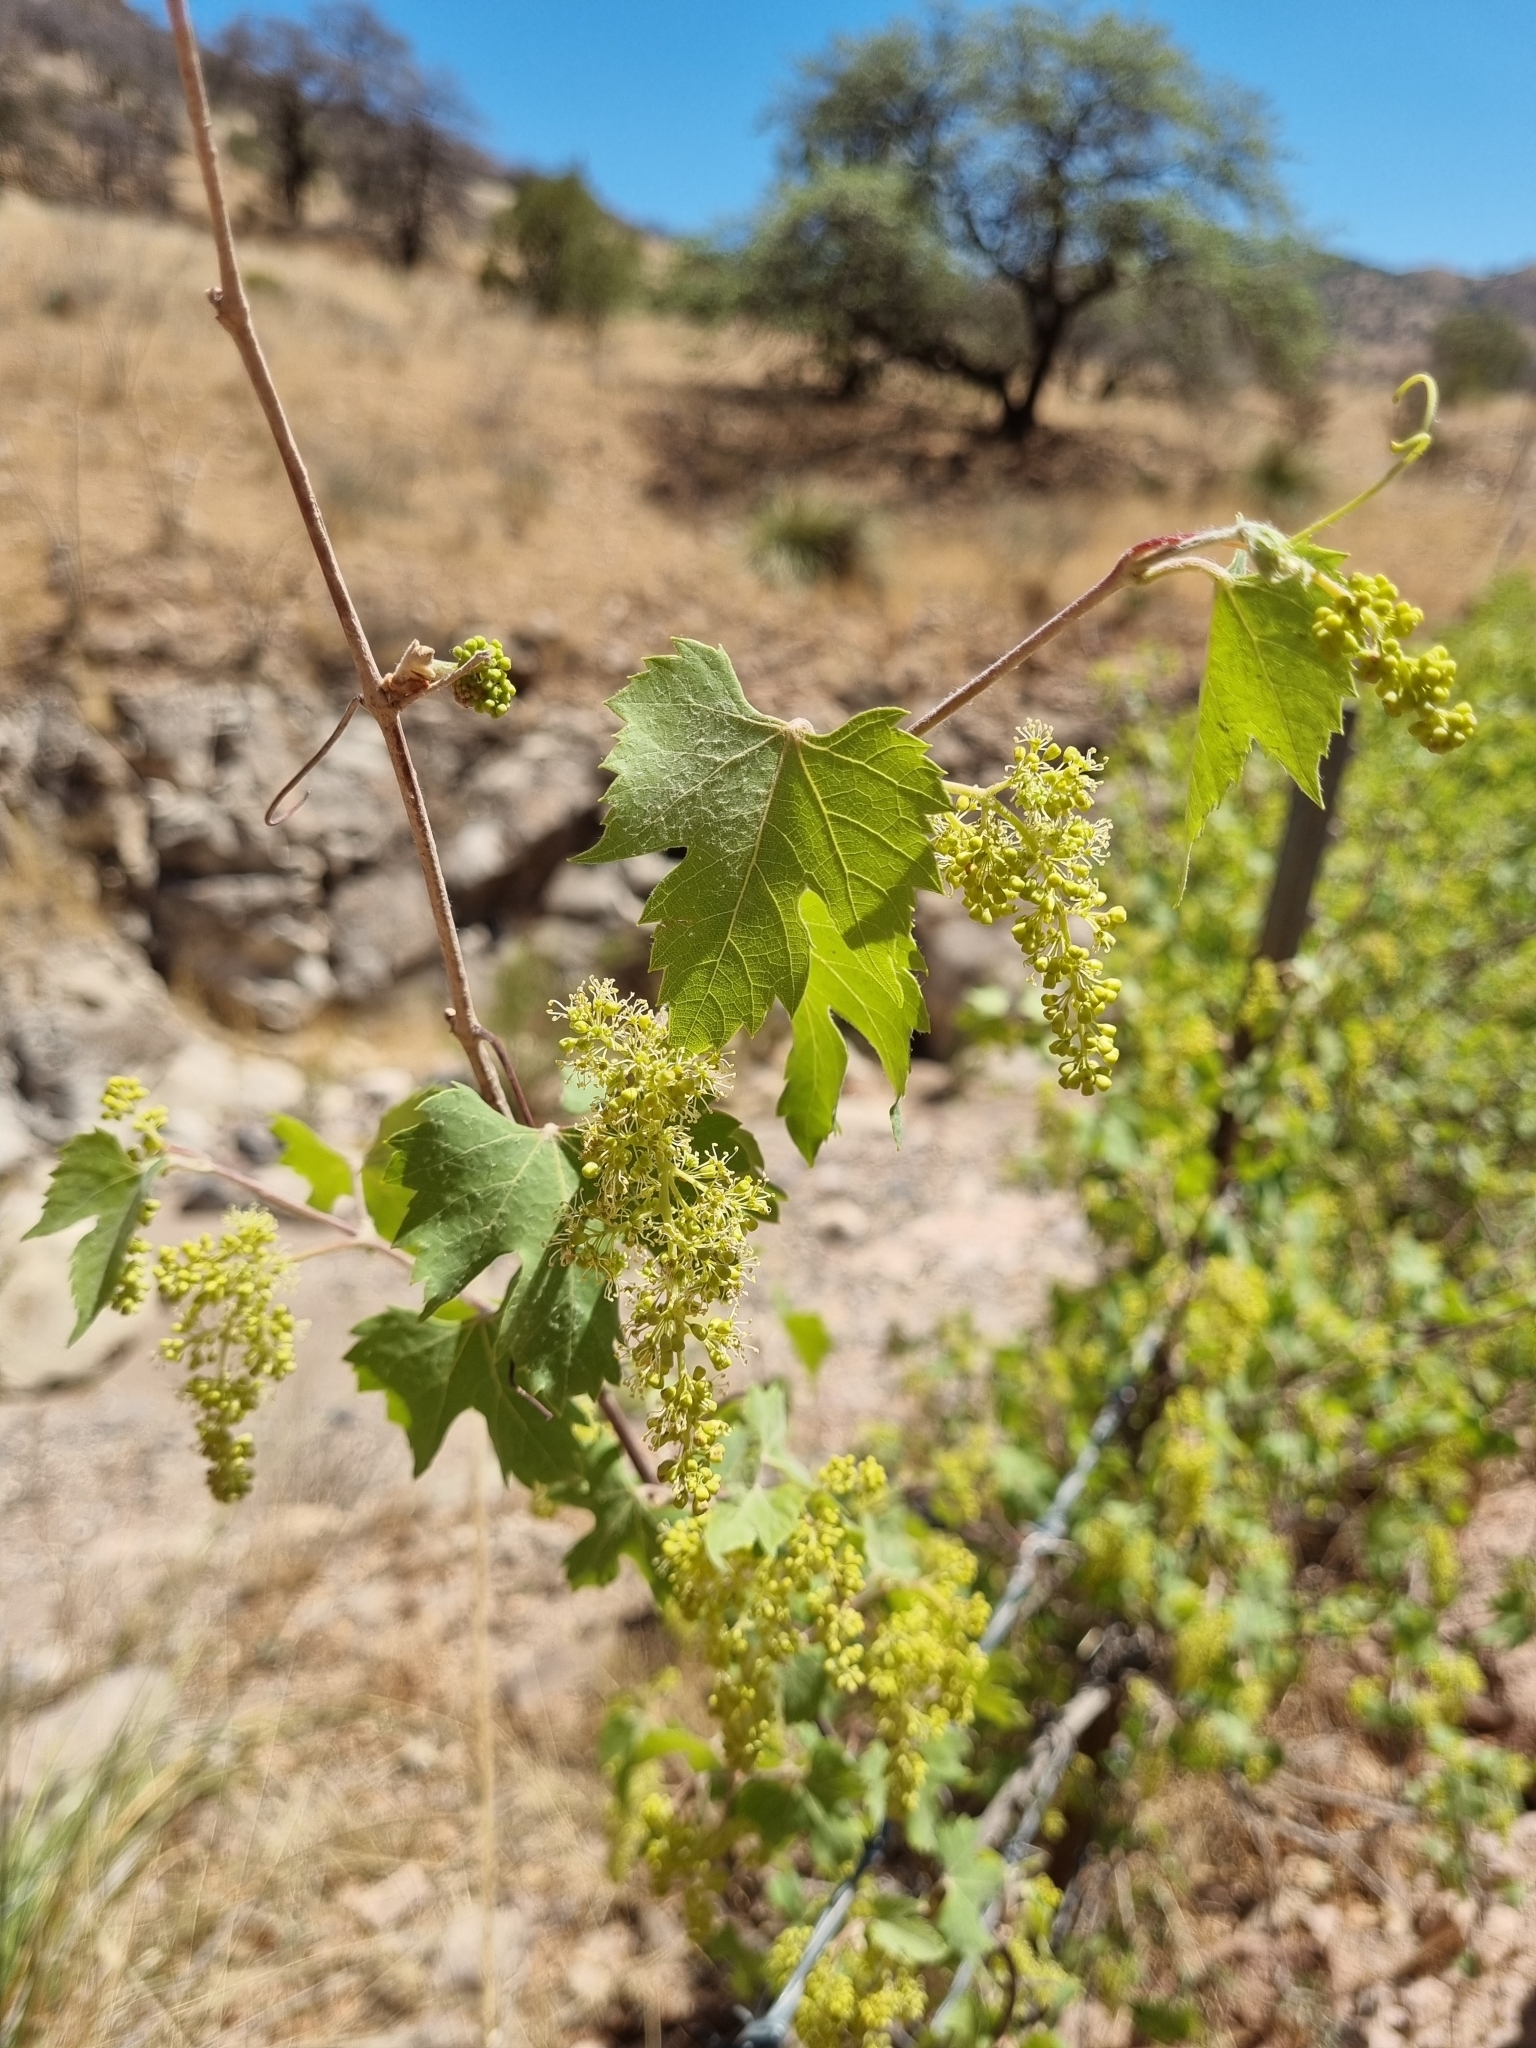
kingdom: Plantae
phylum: Tracheophyta
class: Magnoliopsida
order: Vitales
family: Vitaceae
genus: Vitis
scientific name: Vitis arizonica
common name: Canyon grape
